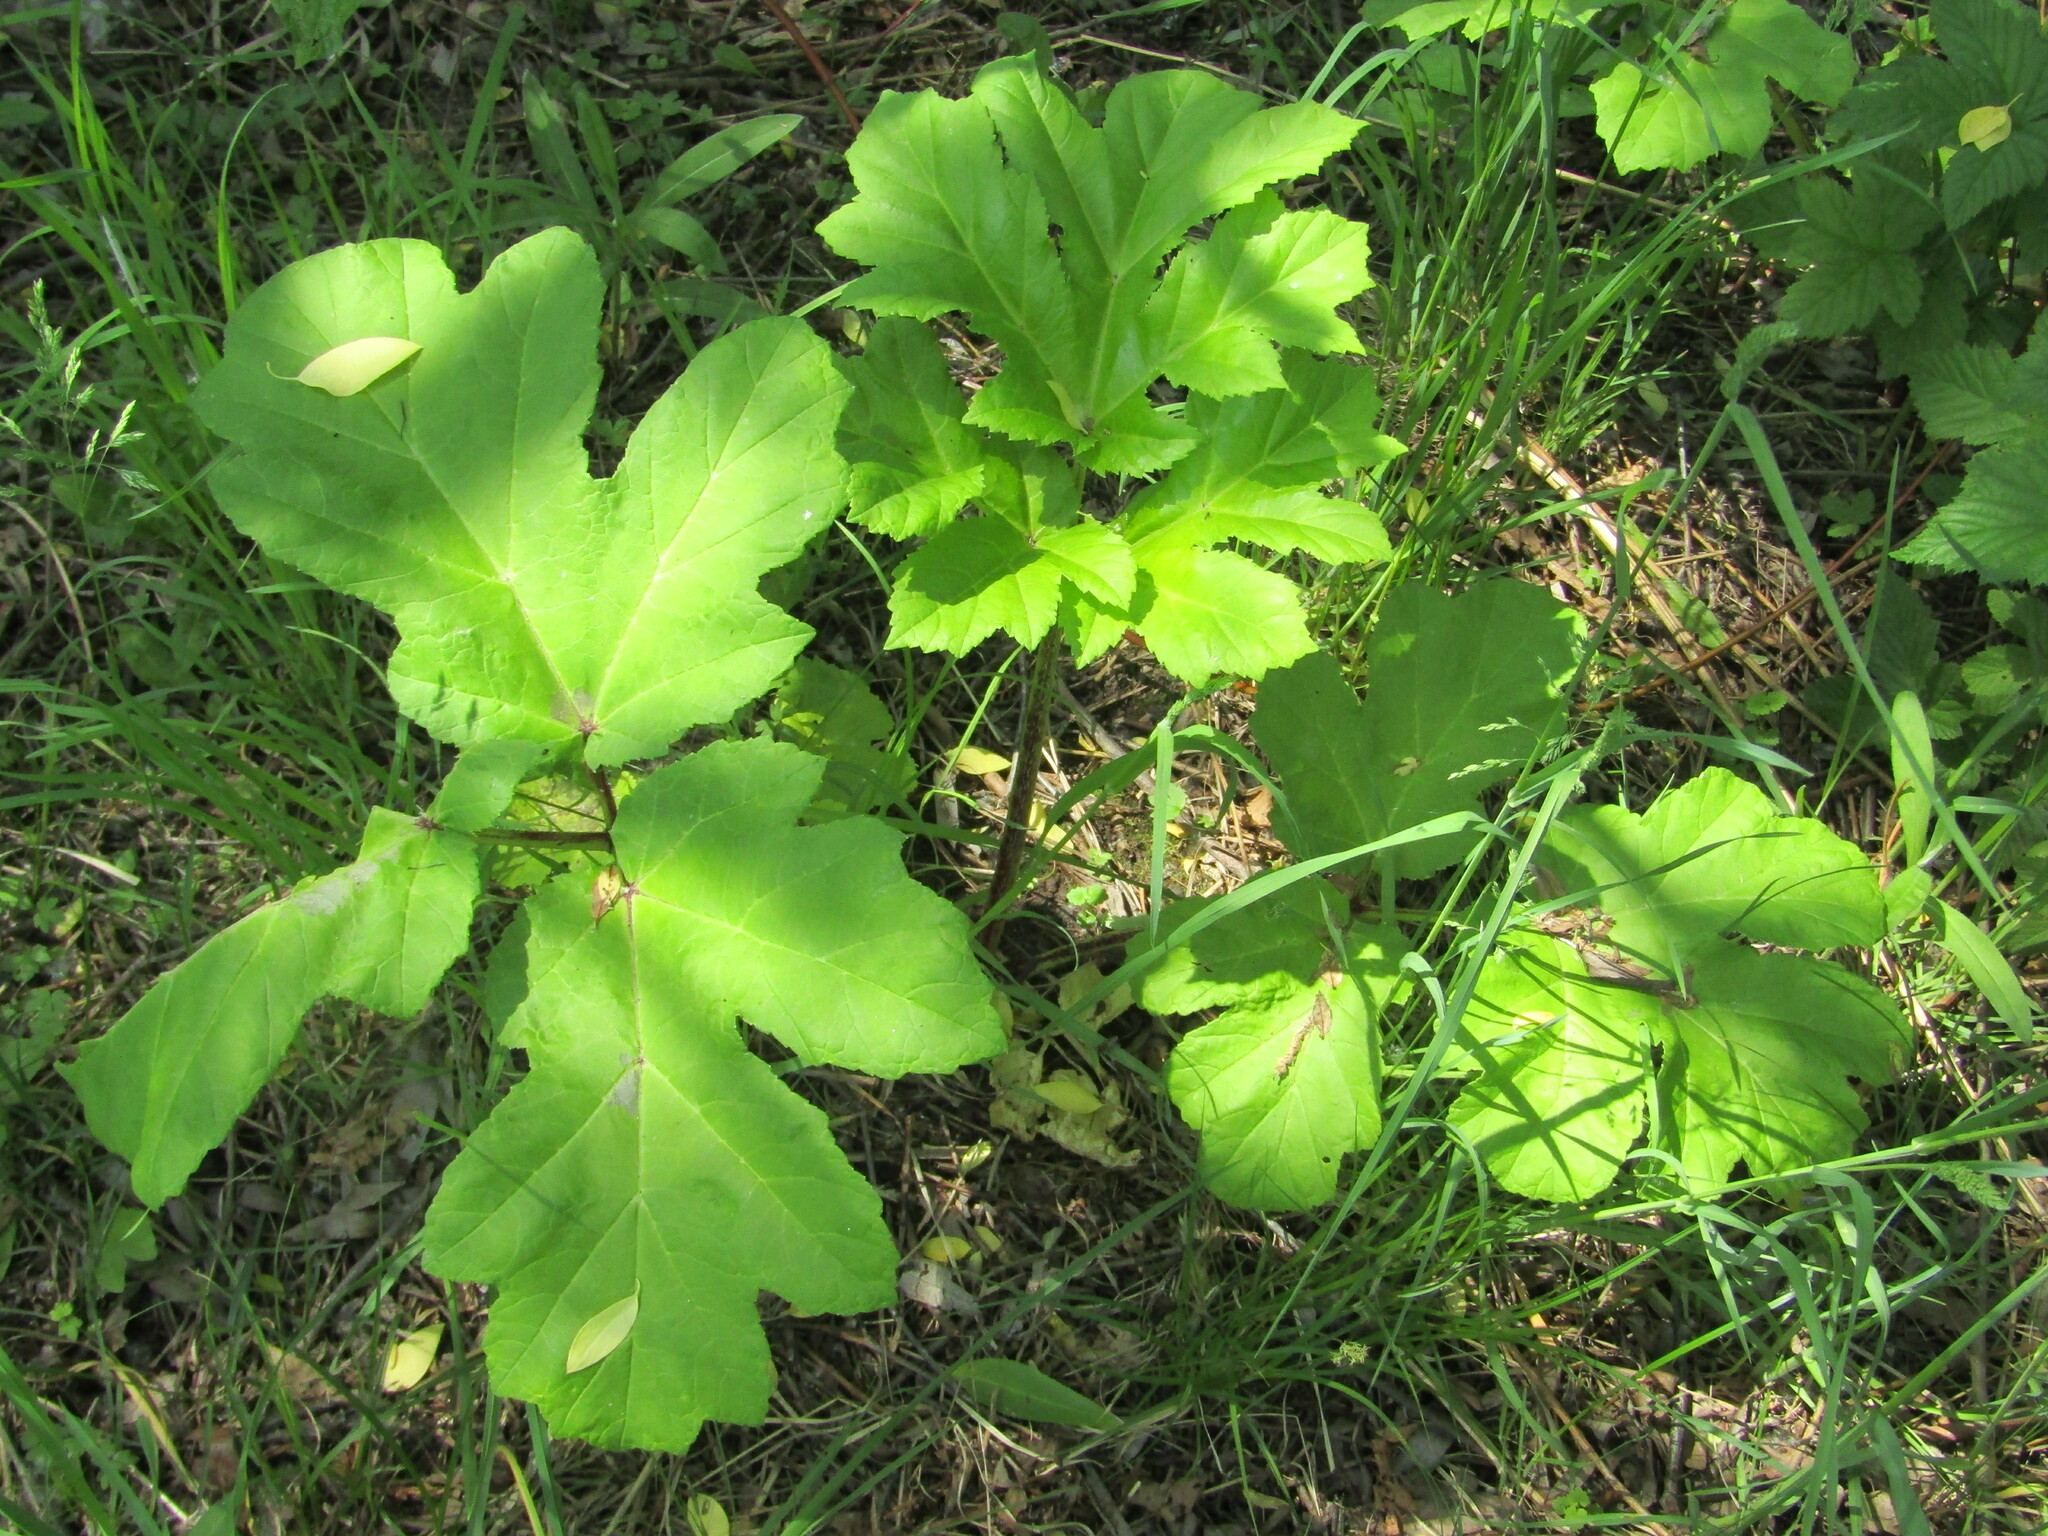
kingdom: Plantae
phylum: Tracheophyta
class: Magnoliopsida
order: Apiales
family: Apiaceae
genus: Heracleum
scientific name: Heracleum sosnowskyi
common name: Sosnowsky's hogweed
